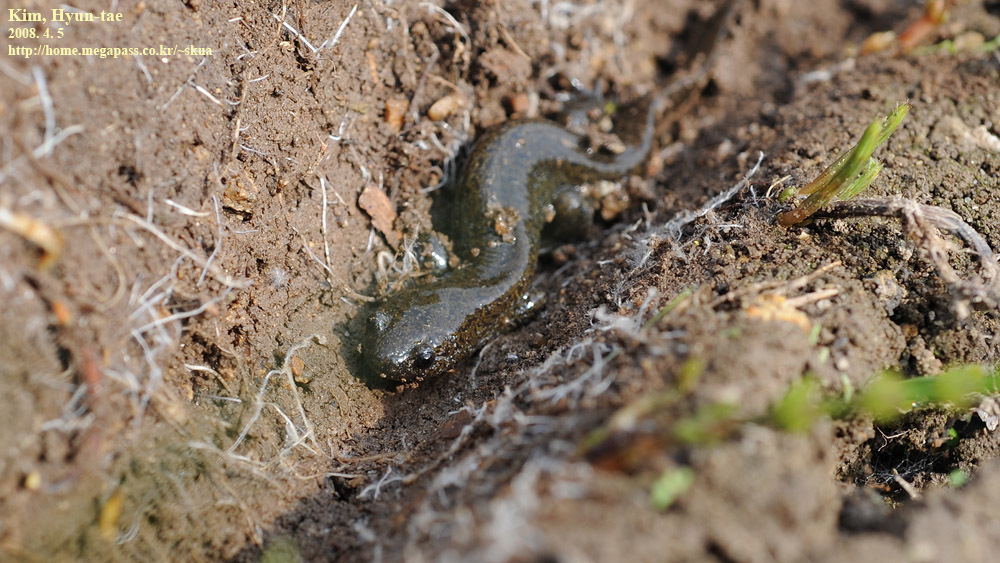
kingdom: Animalia
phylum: Chordata
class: Amphibia
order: Caudata
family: Hynobiidae
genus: Hynobius
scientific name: Hynobius leechii
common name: Gensan salamander
